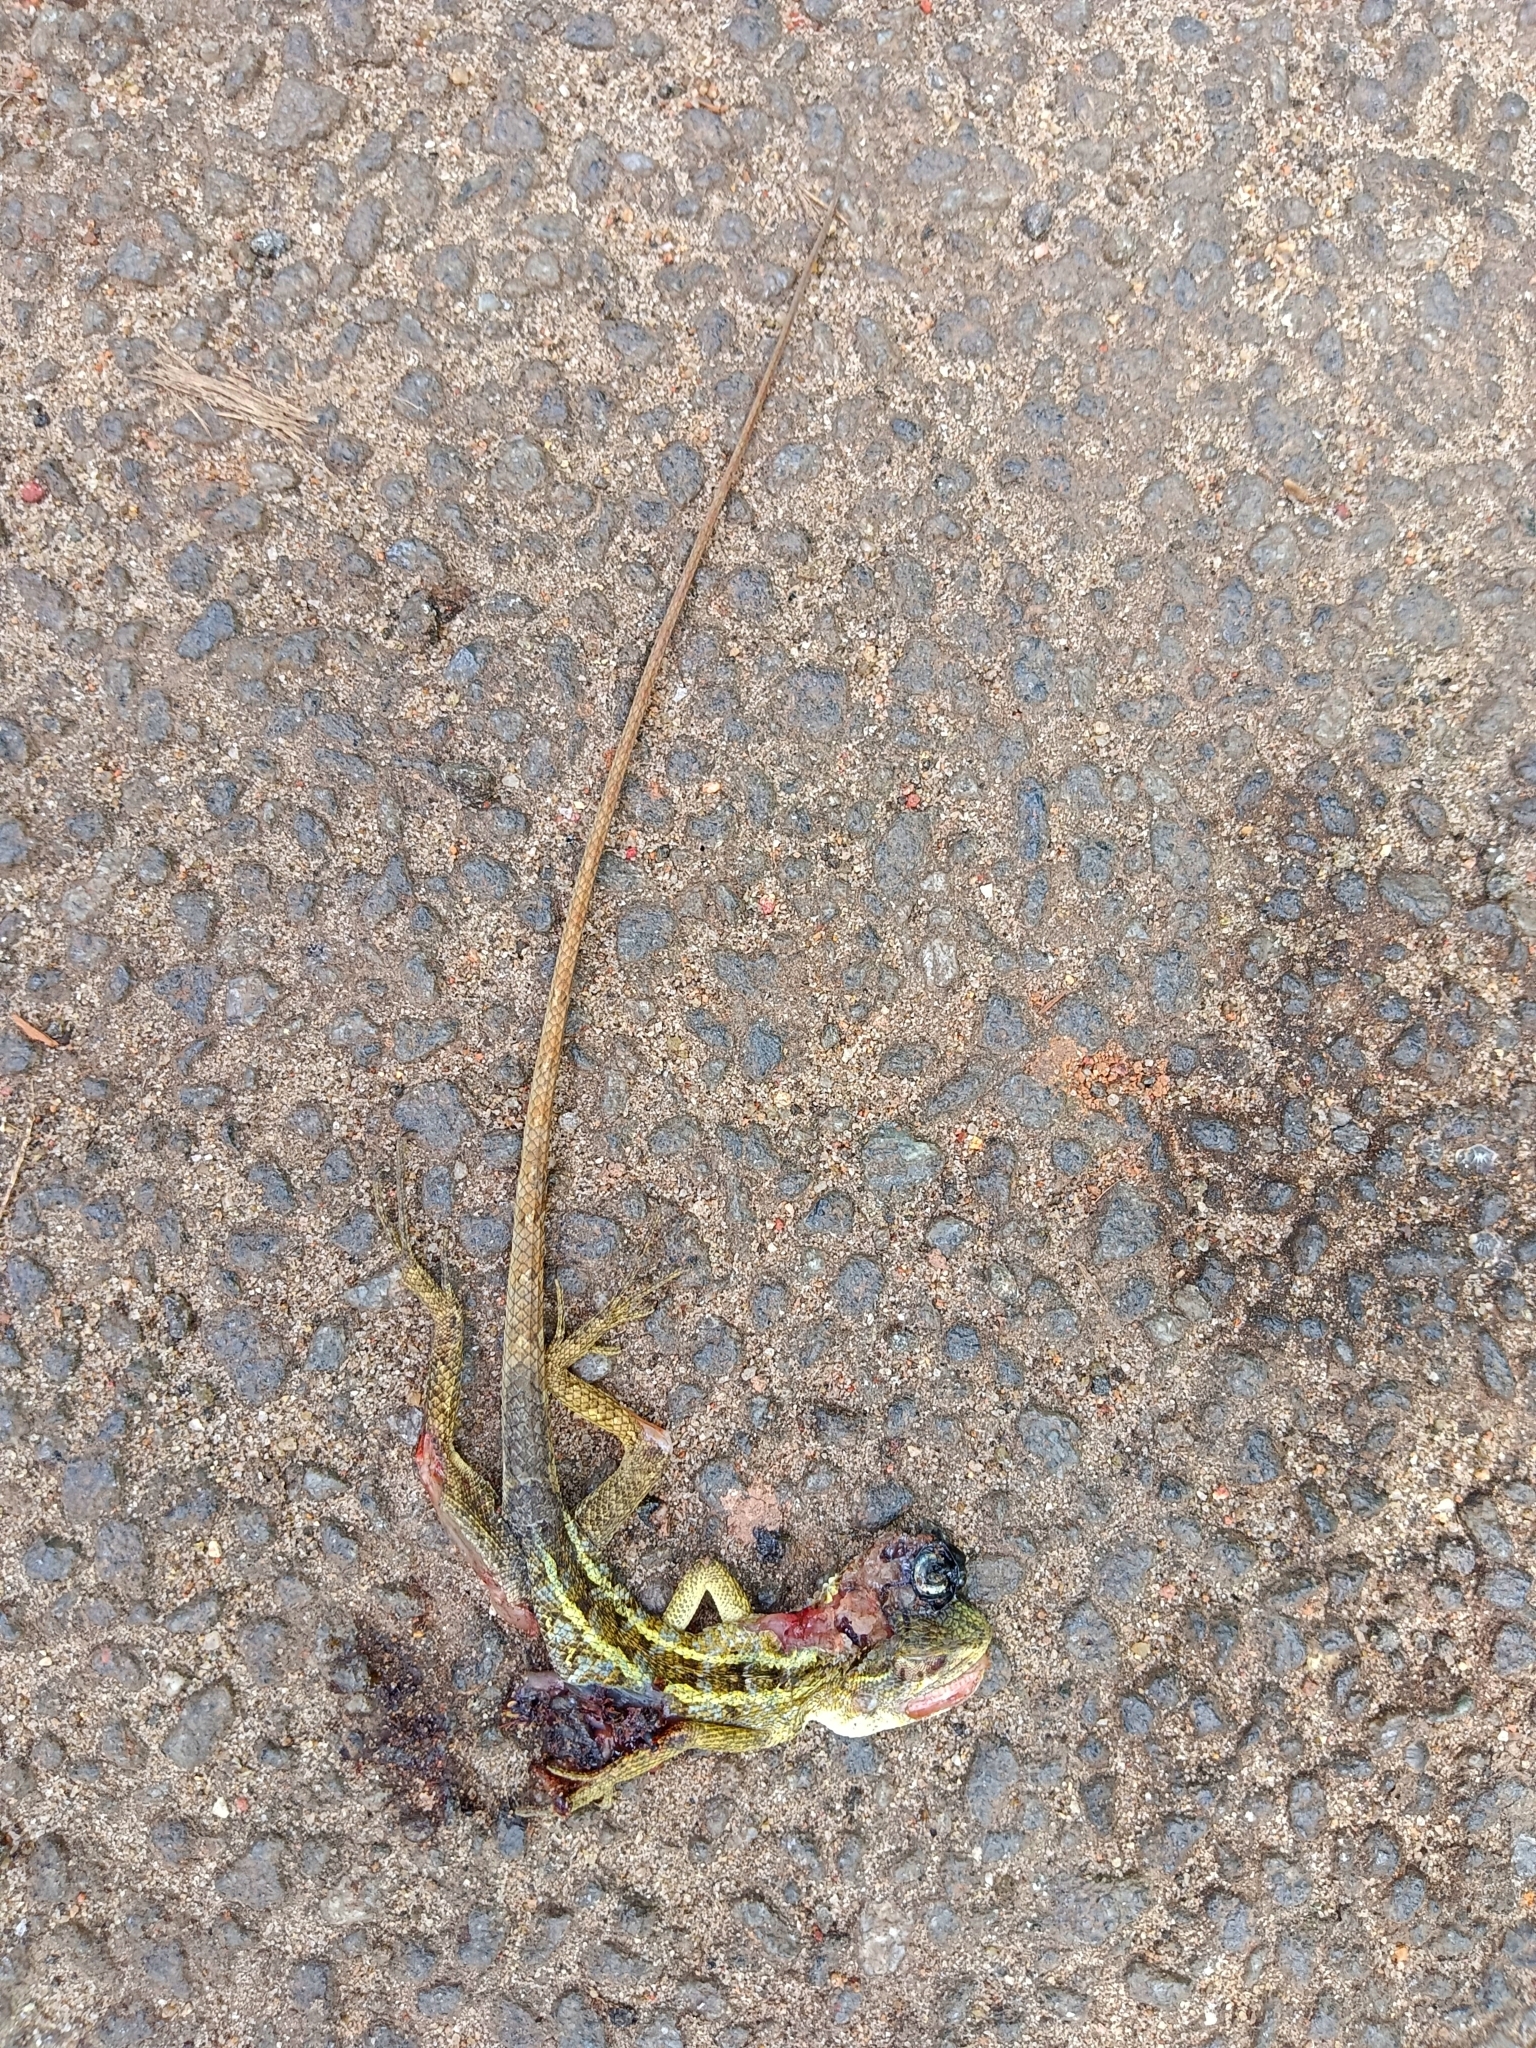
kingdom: Animalia
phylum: Chordata
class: Squamata
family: Agamidae
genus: Calotes
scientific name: Calotes versicolor
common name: Oriental garden lizard
